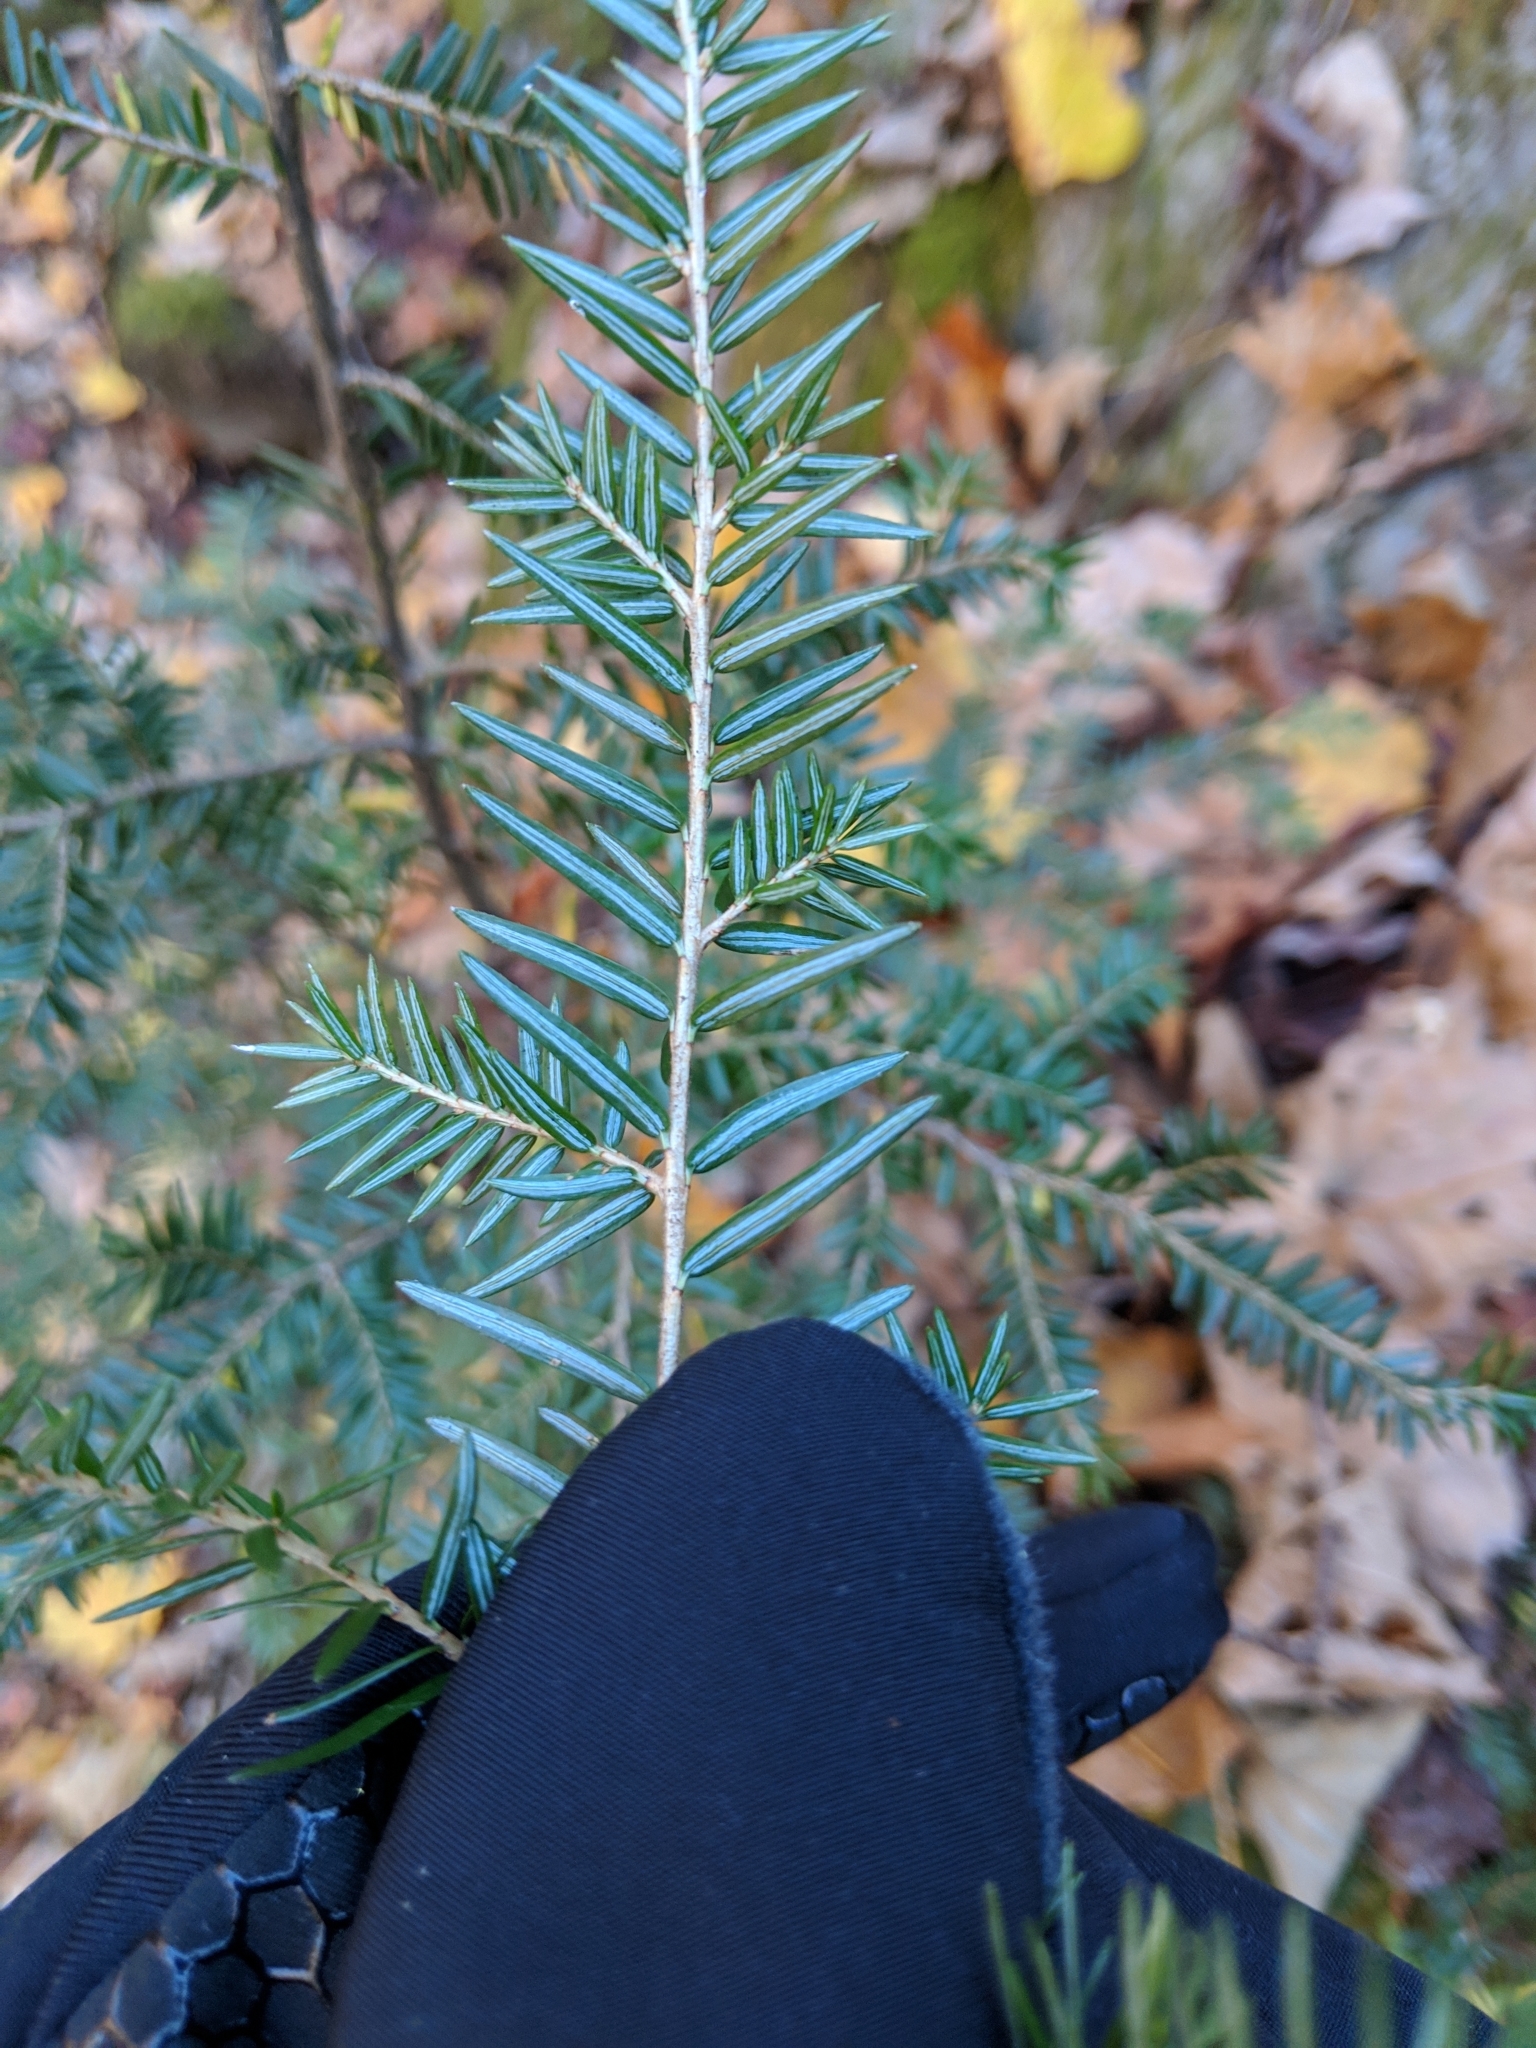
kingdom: Plantae
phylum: Tracheophyta
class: Pinopsida
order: Pinales
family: Pinaceae
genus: Tsuga
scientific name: Tsuga canadensis
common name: Eastern hemlock
